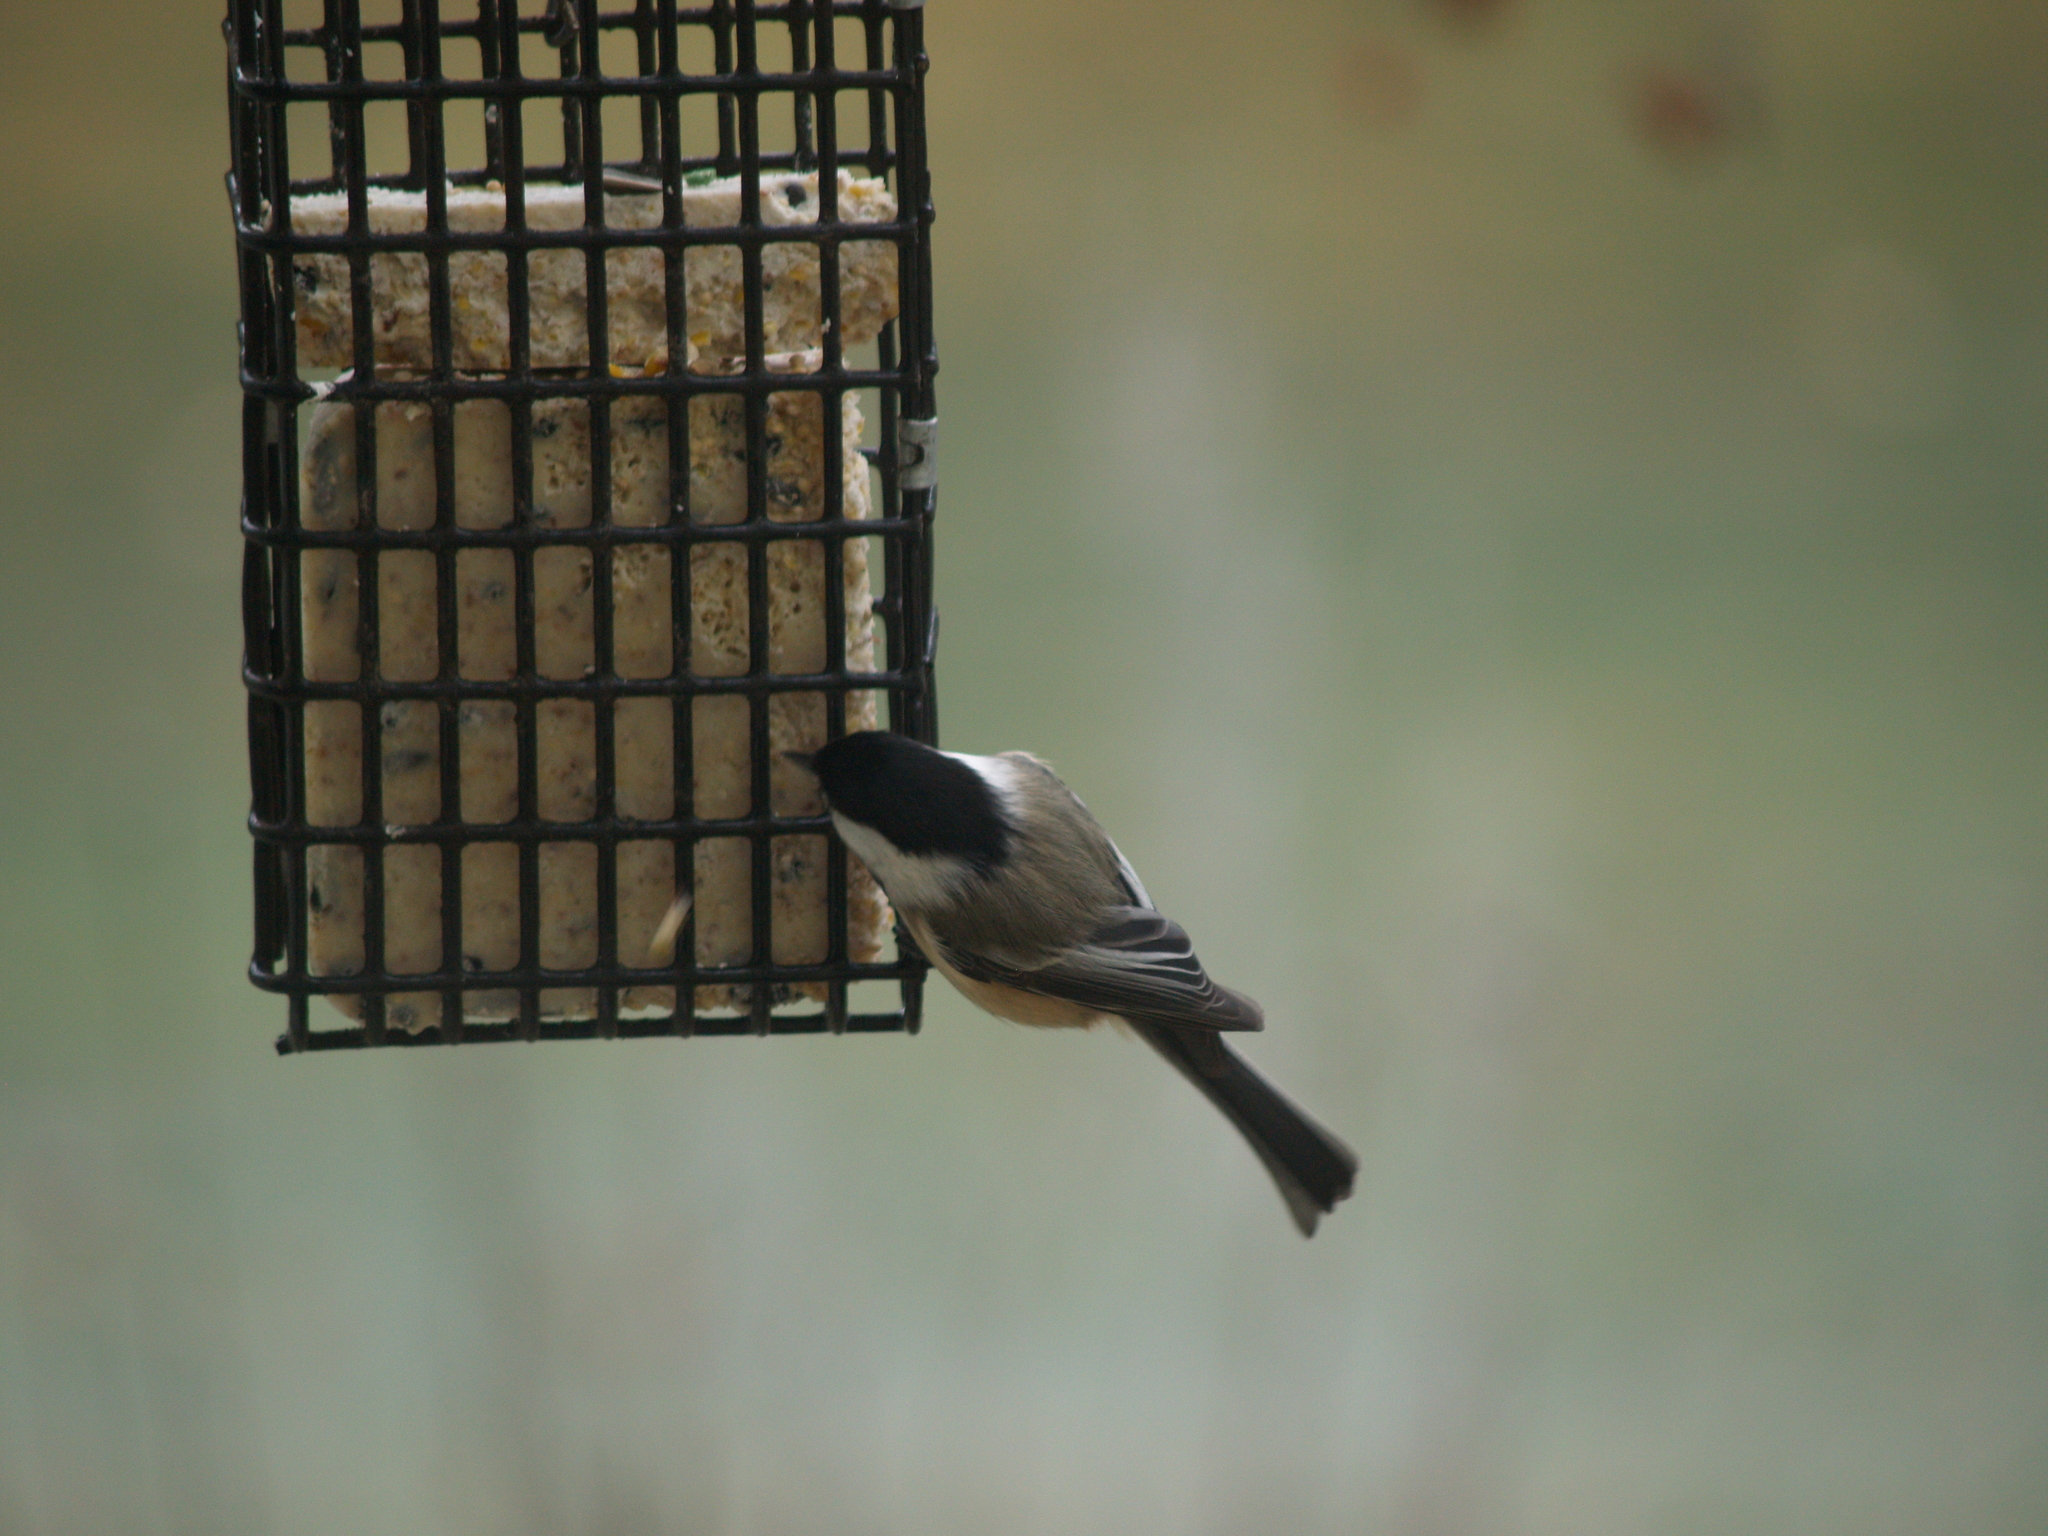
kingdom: Animalia
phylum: Chordata
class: Aves
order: Passeriformes
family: Paridae
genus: Poecile
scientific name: Poecile atricapillus
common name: Black-capped chickadee
